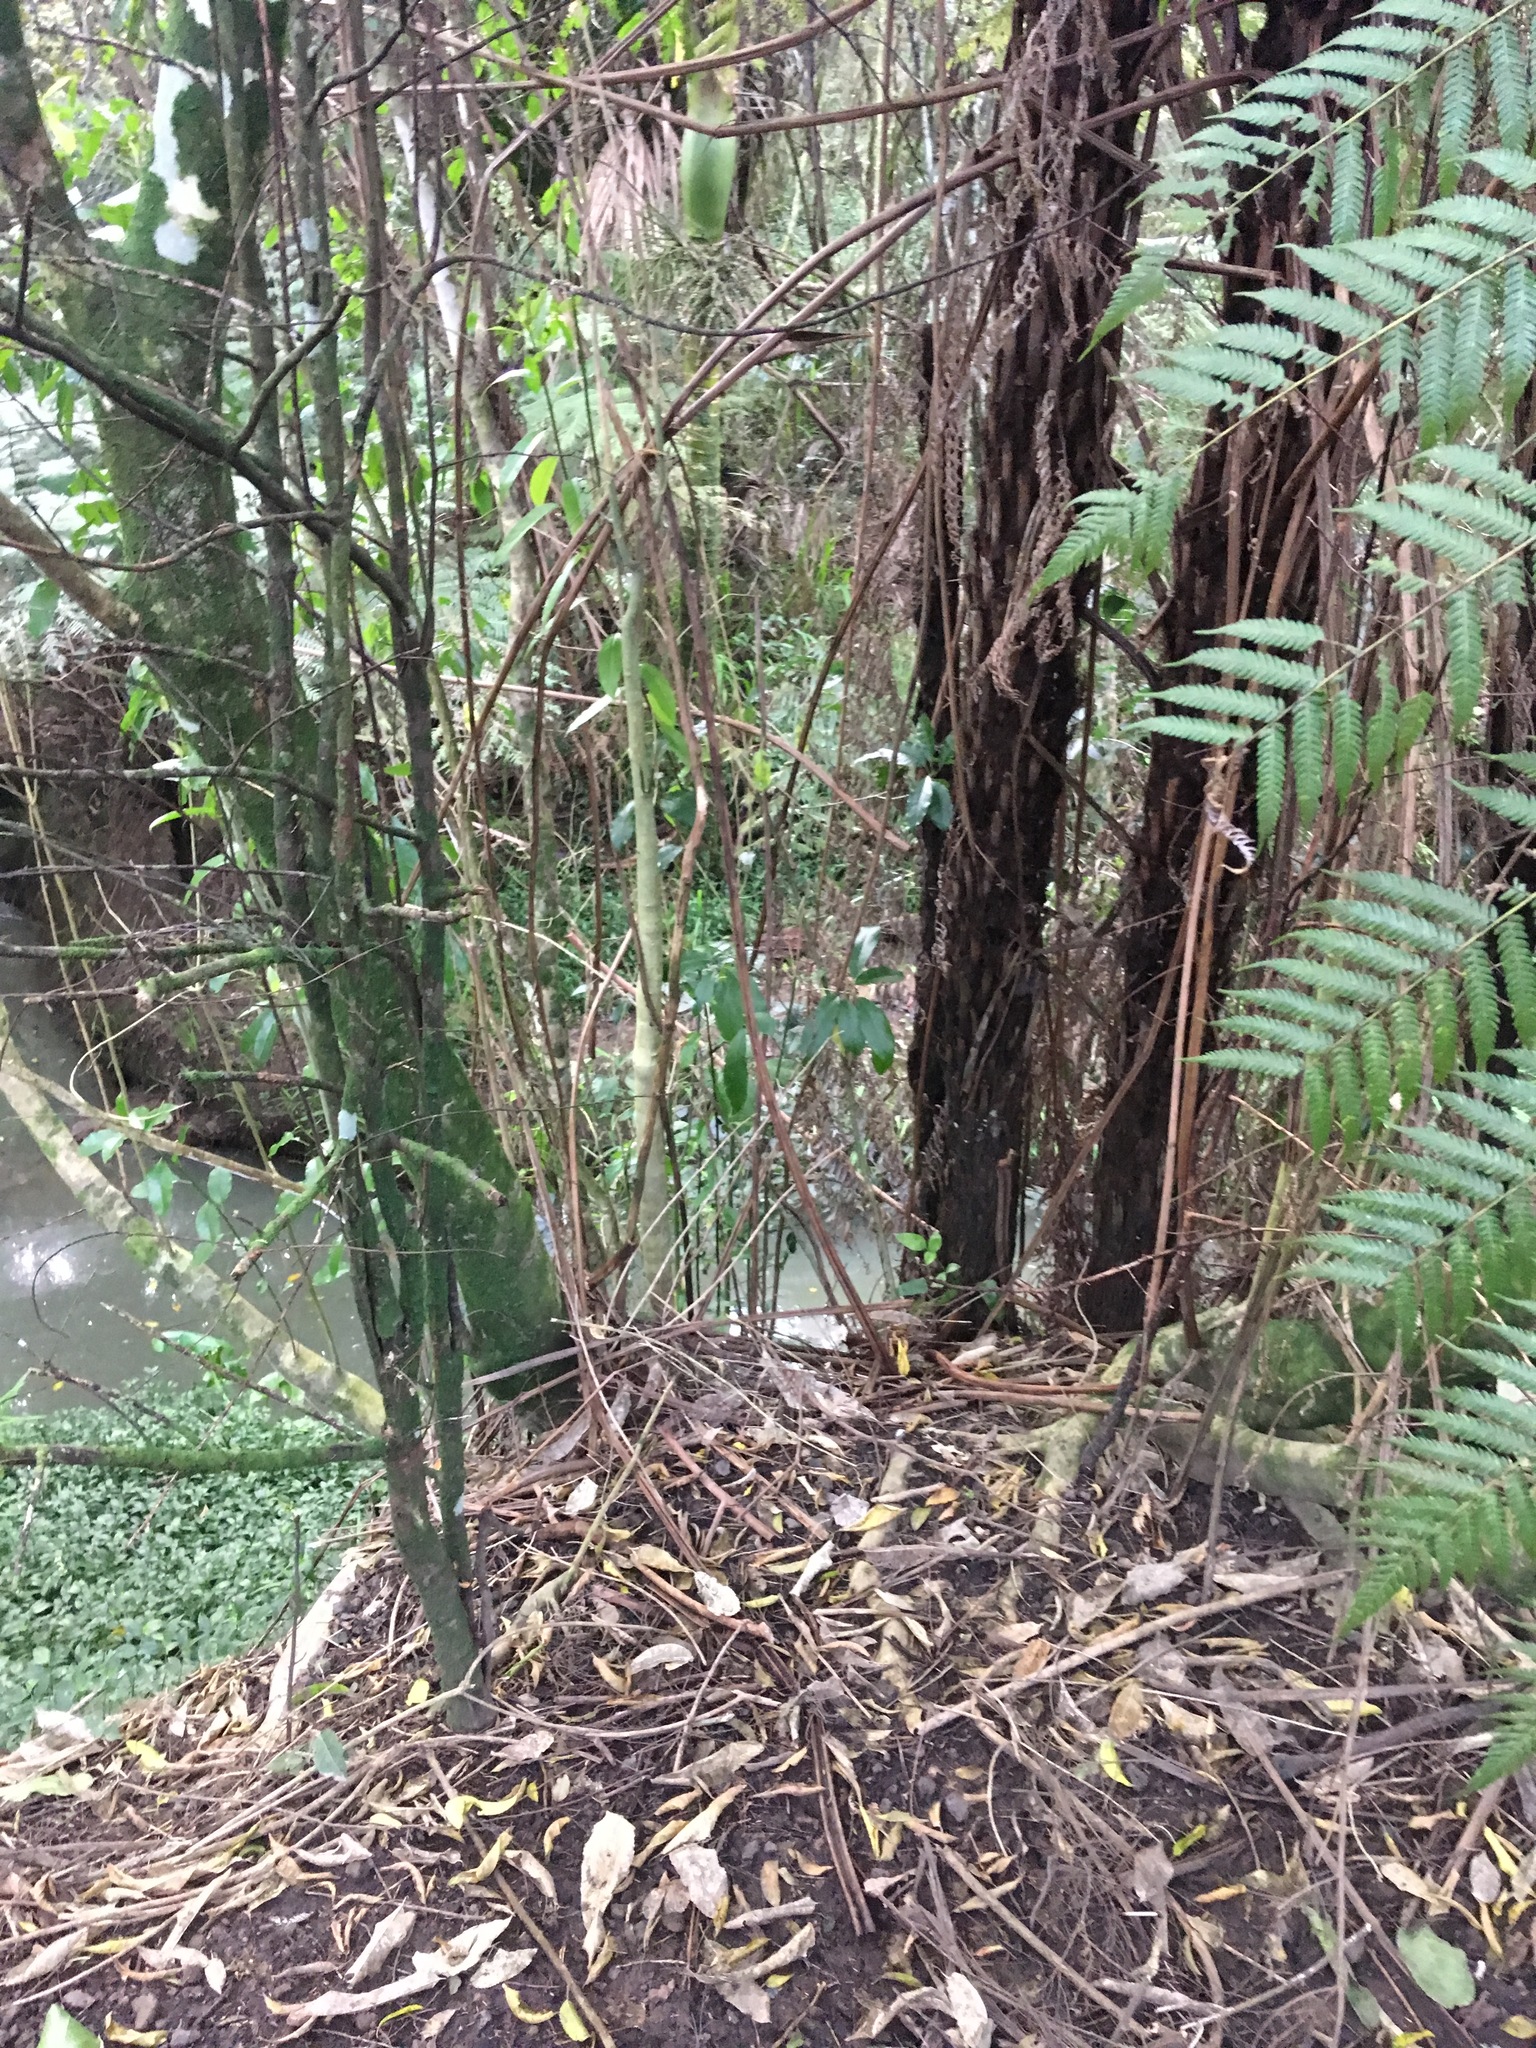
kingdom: Plantae
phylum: Tracheophyta
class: Liliopsida
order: Commelinales
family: Commelinaceae
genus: Tradescantia
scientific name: Tradescantia fluminensis
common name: Wandering-jew
